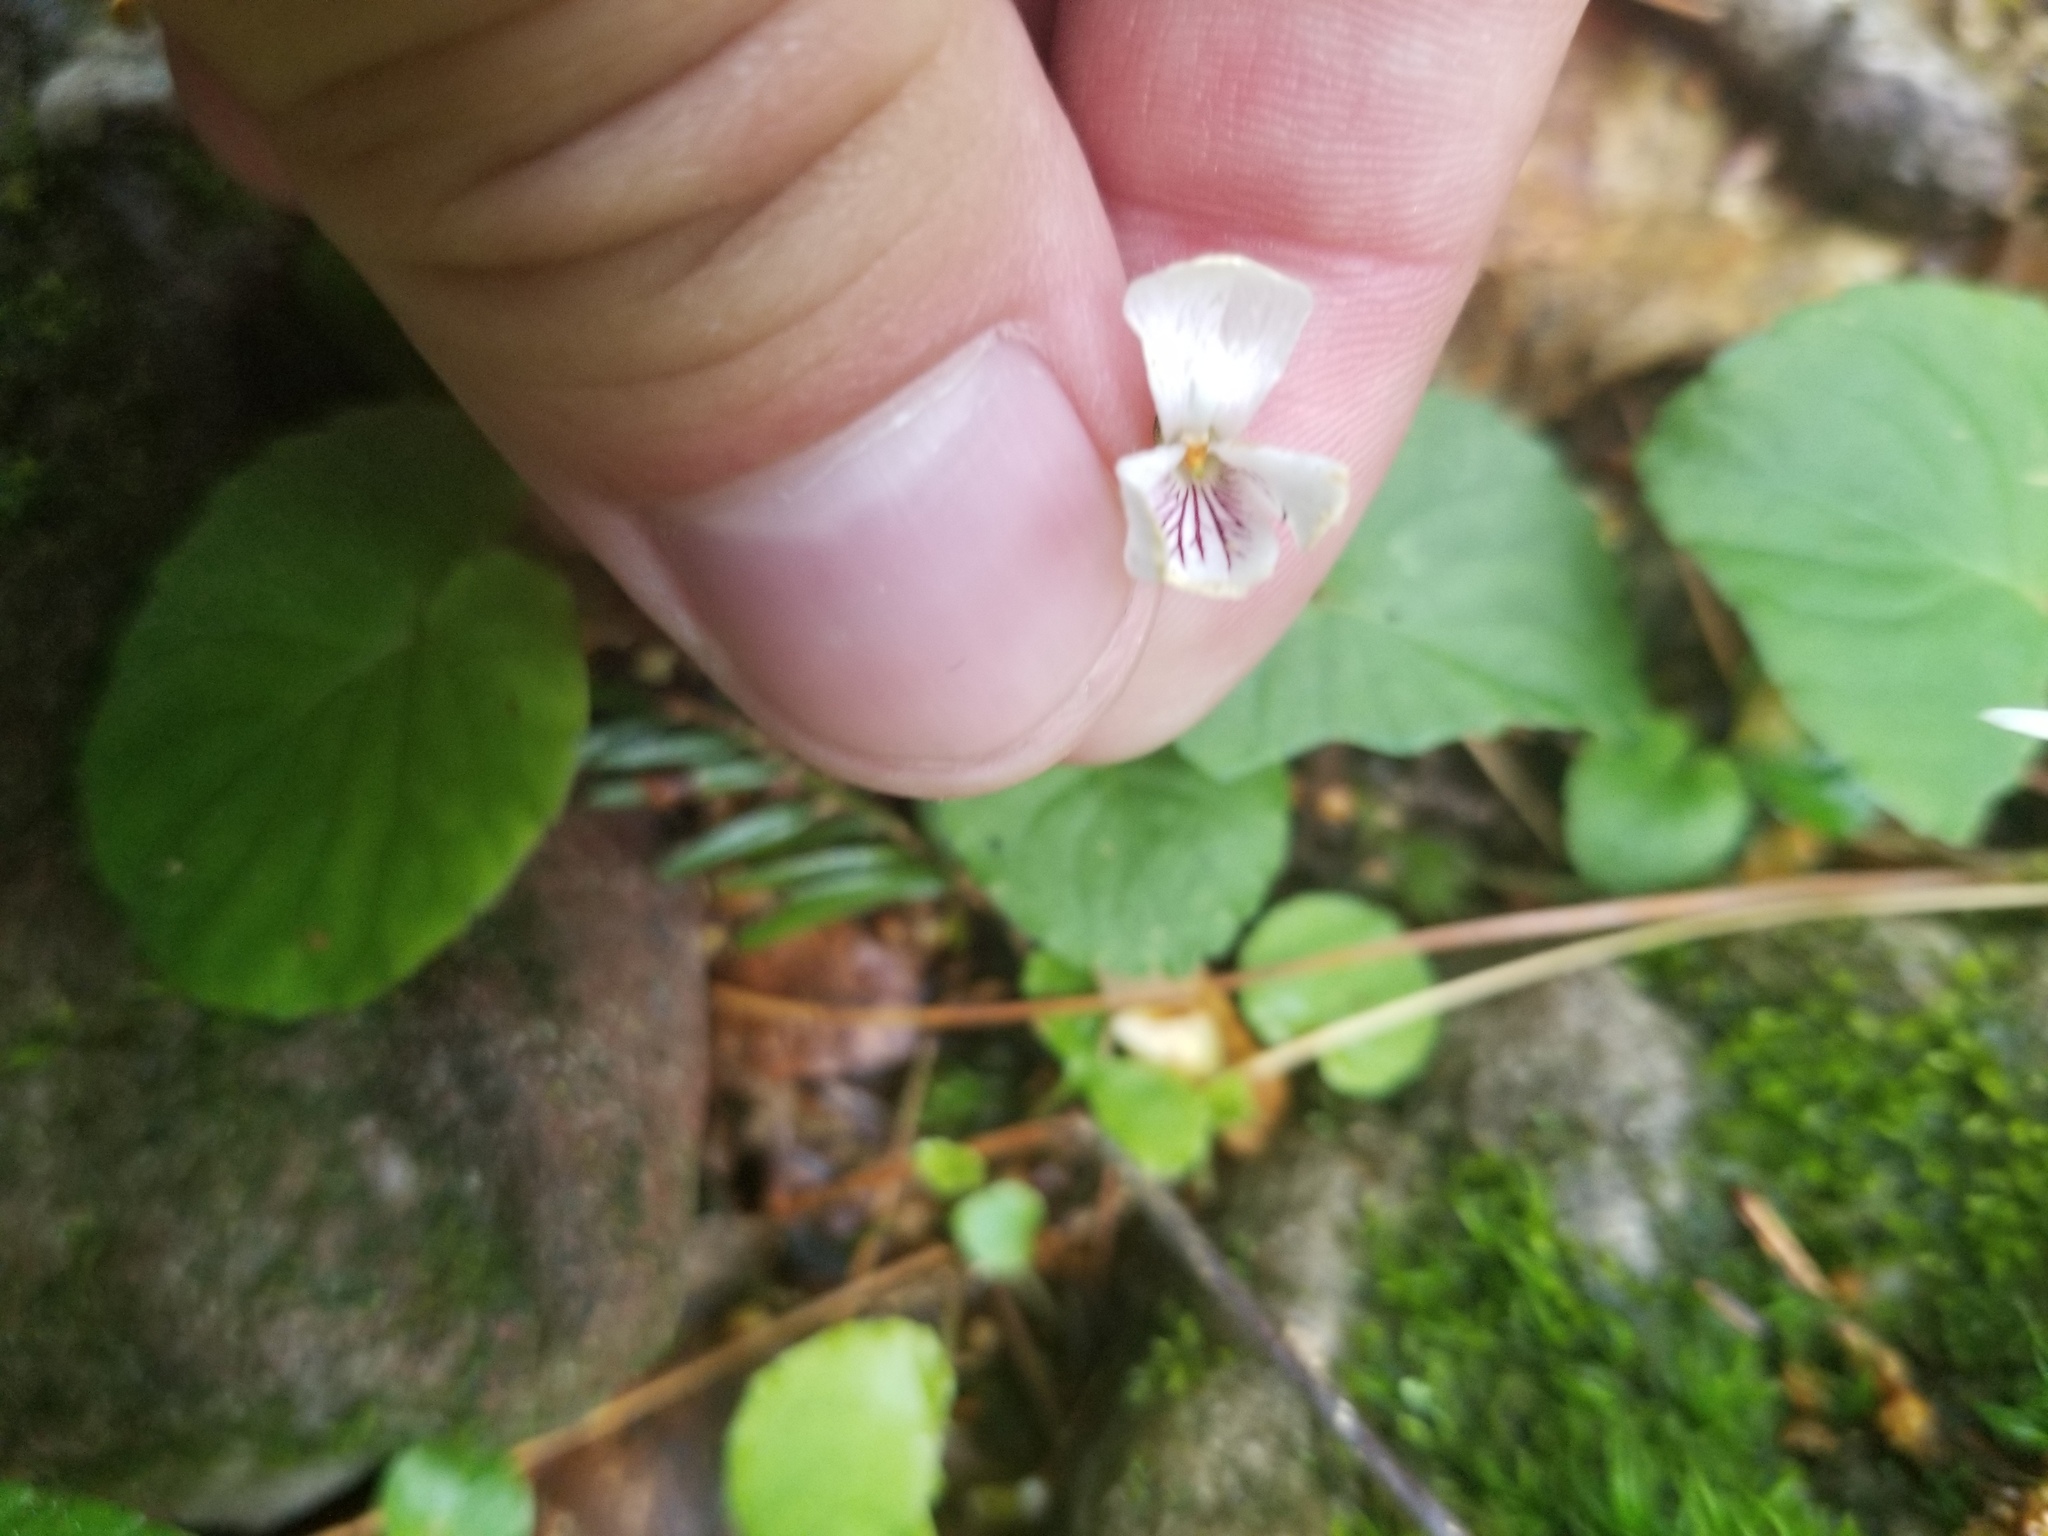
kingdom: Plantae
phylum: Tracheophyta
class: Magnoliopsida
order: Malpighiales
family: Violaceae
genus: Viola
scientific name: Viola blanda
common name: Sweet white violet
